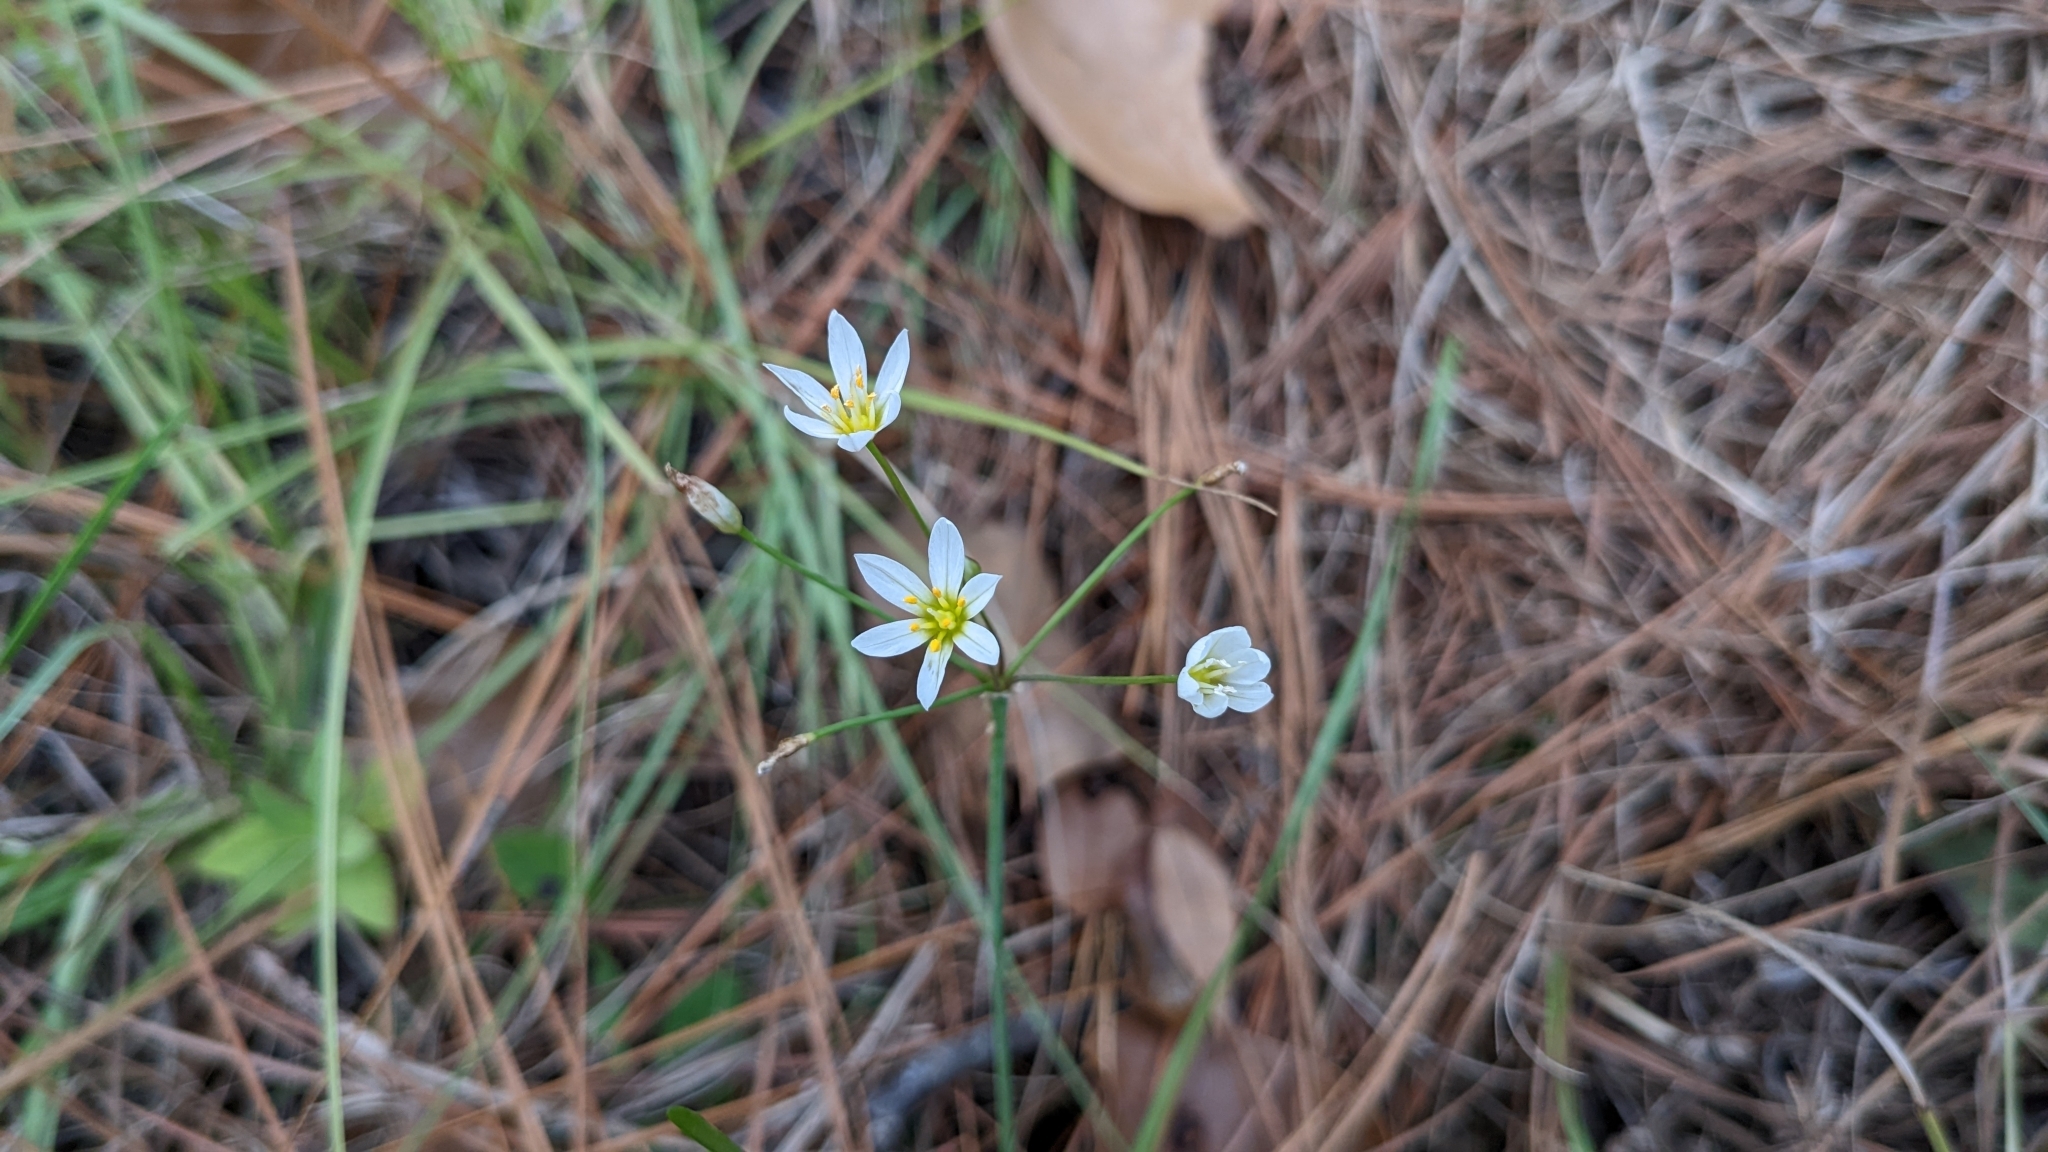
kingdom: Plantae
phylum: Tracheophyta
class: Liliopsida
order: Asparagales
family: Amaryllidaceae
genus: Nothoscordum
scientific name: Nothoscordum bivalve
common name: Crow-poison
